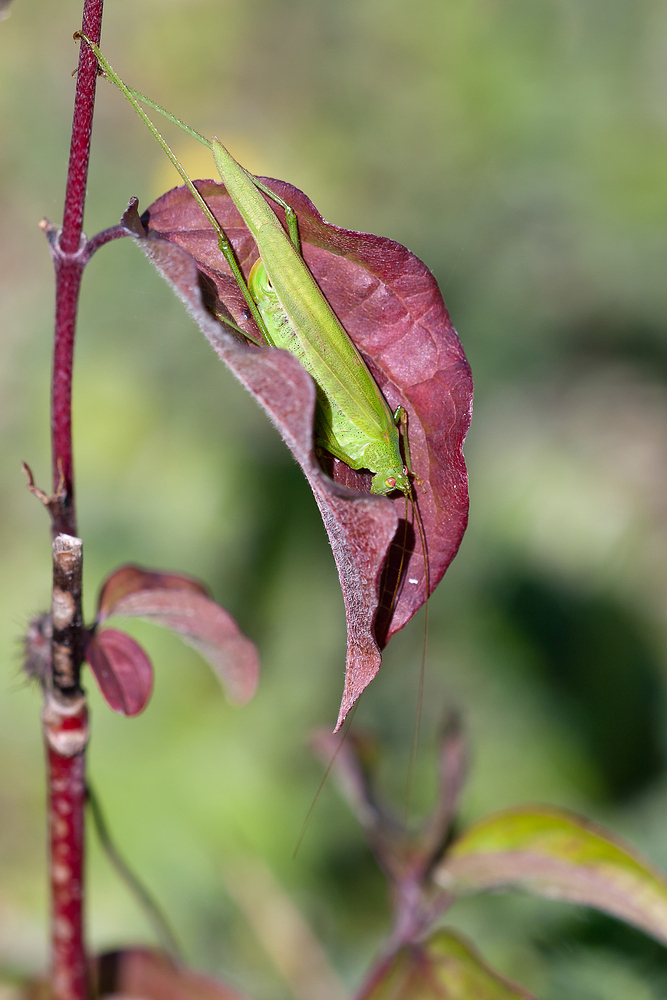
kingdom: Animalia
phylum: Arthropoda
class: Insecta
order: Orthoptera
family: Tettigoniidae
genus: Phaneroptera
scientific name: Phaneroptera falcata
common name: Sickle-bearing bush-cricket
